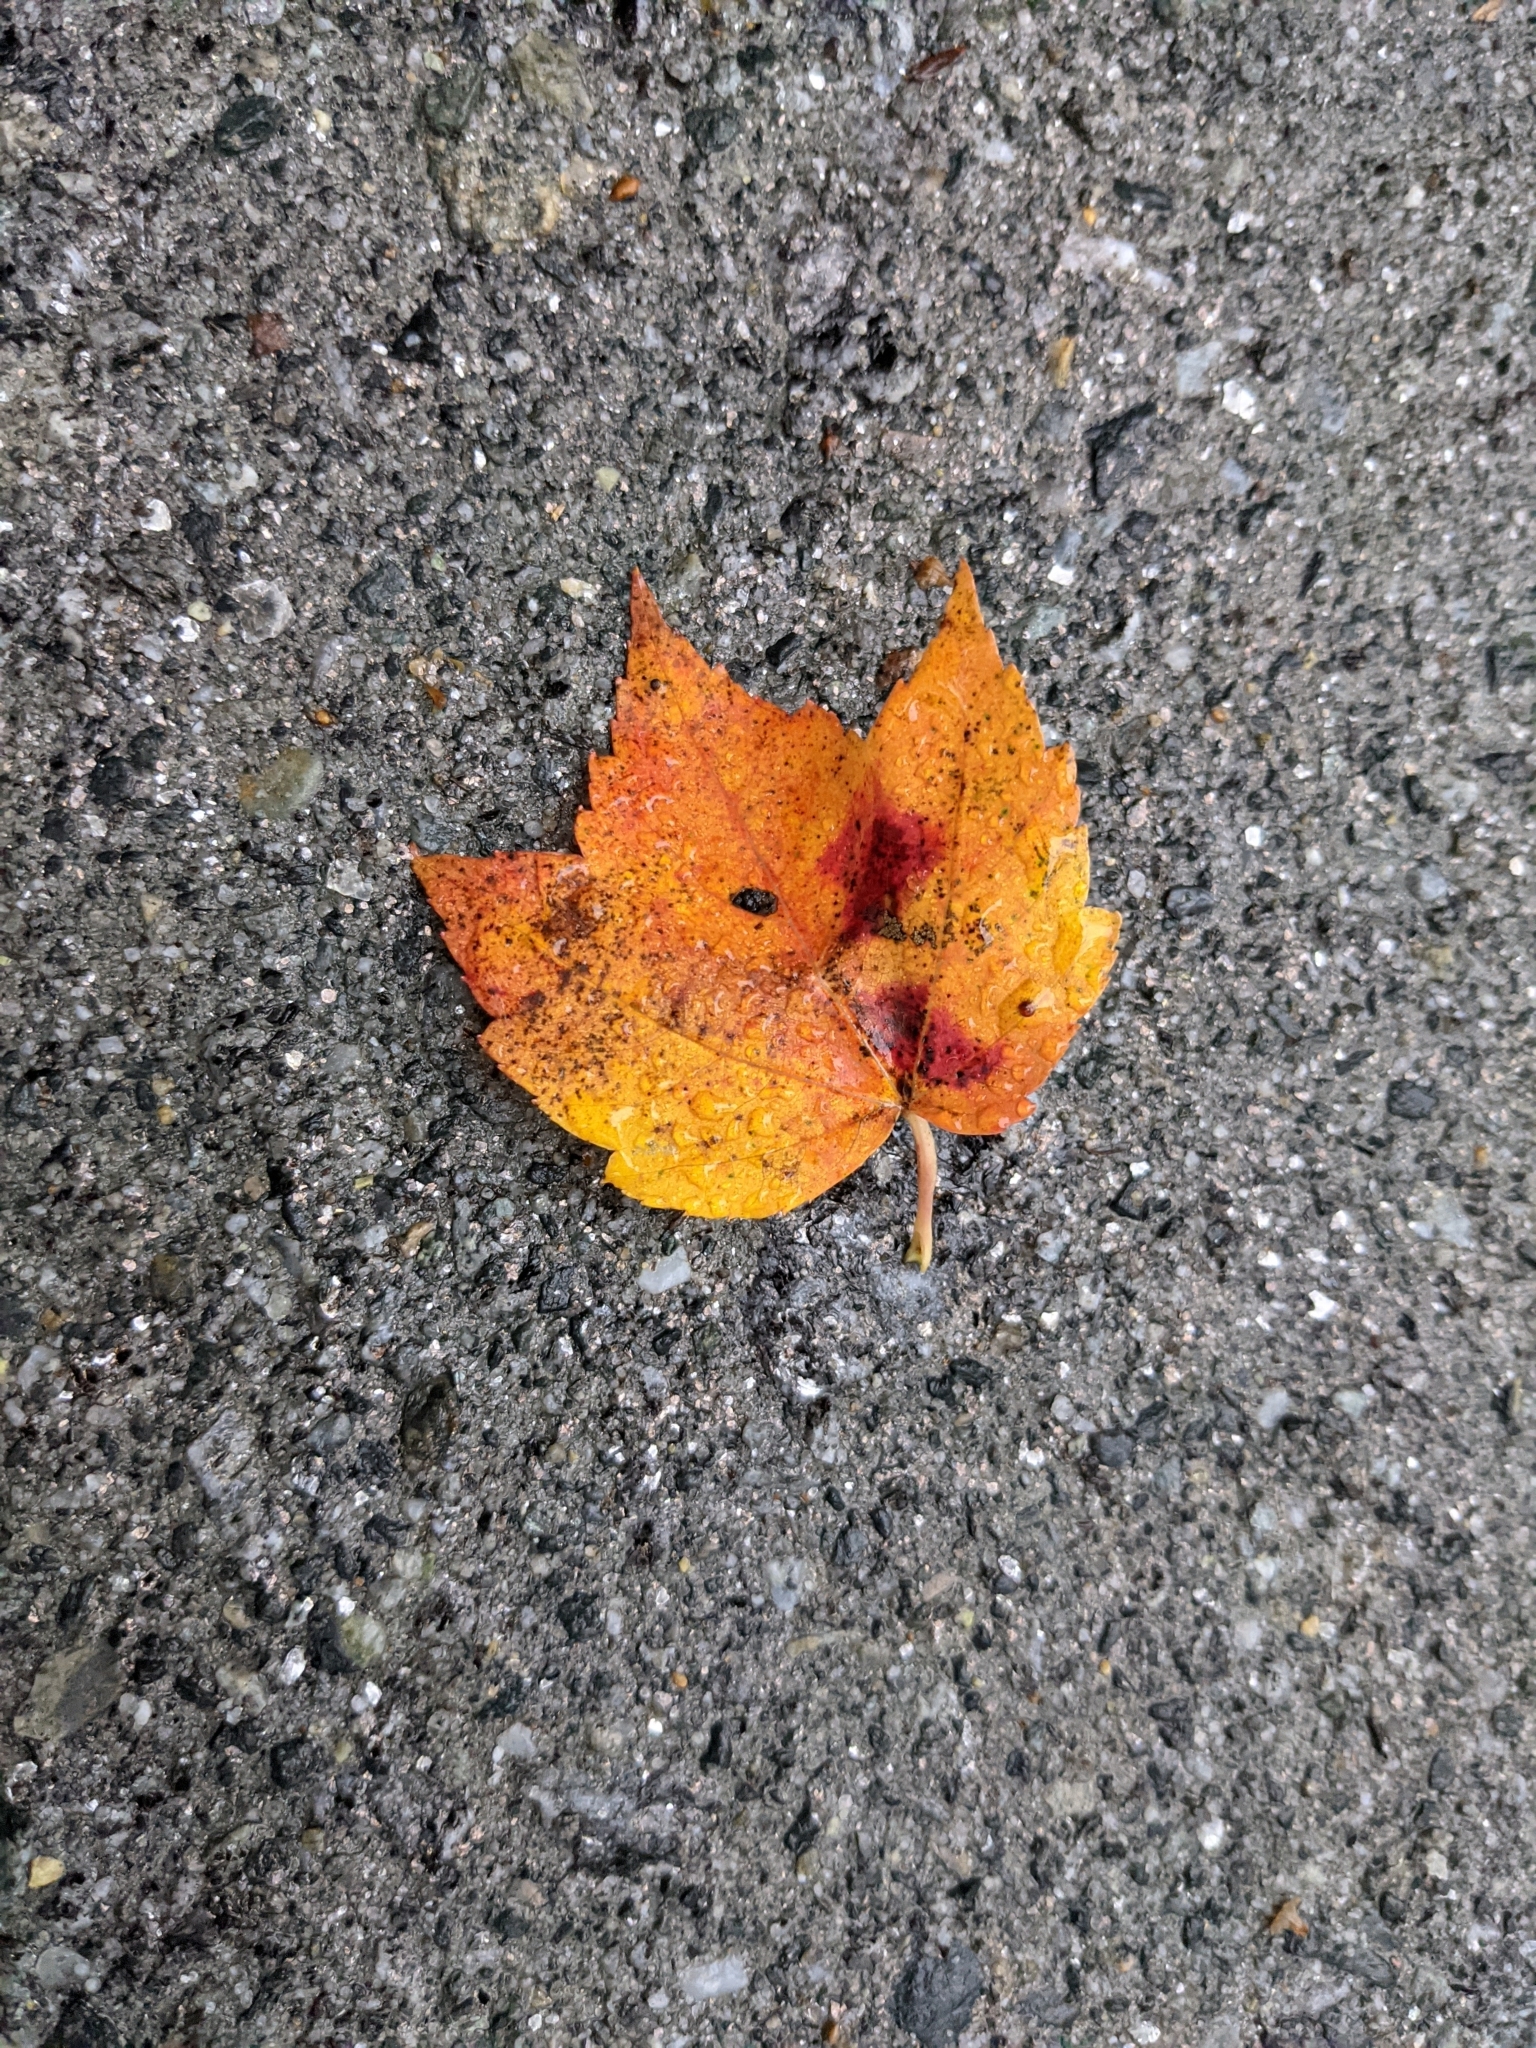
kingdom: Plantae
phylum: Tracheophyta
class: Magnoliopsida
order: Sapindales
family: Sapindaceae
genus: Acer
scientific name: Acer rubrum
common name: Red maple
